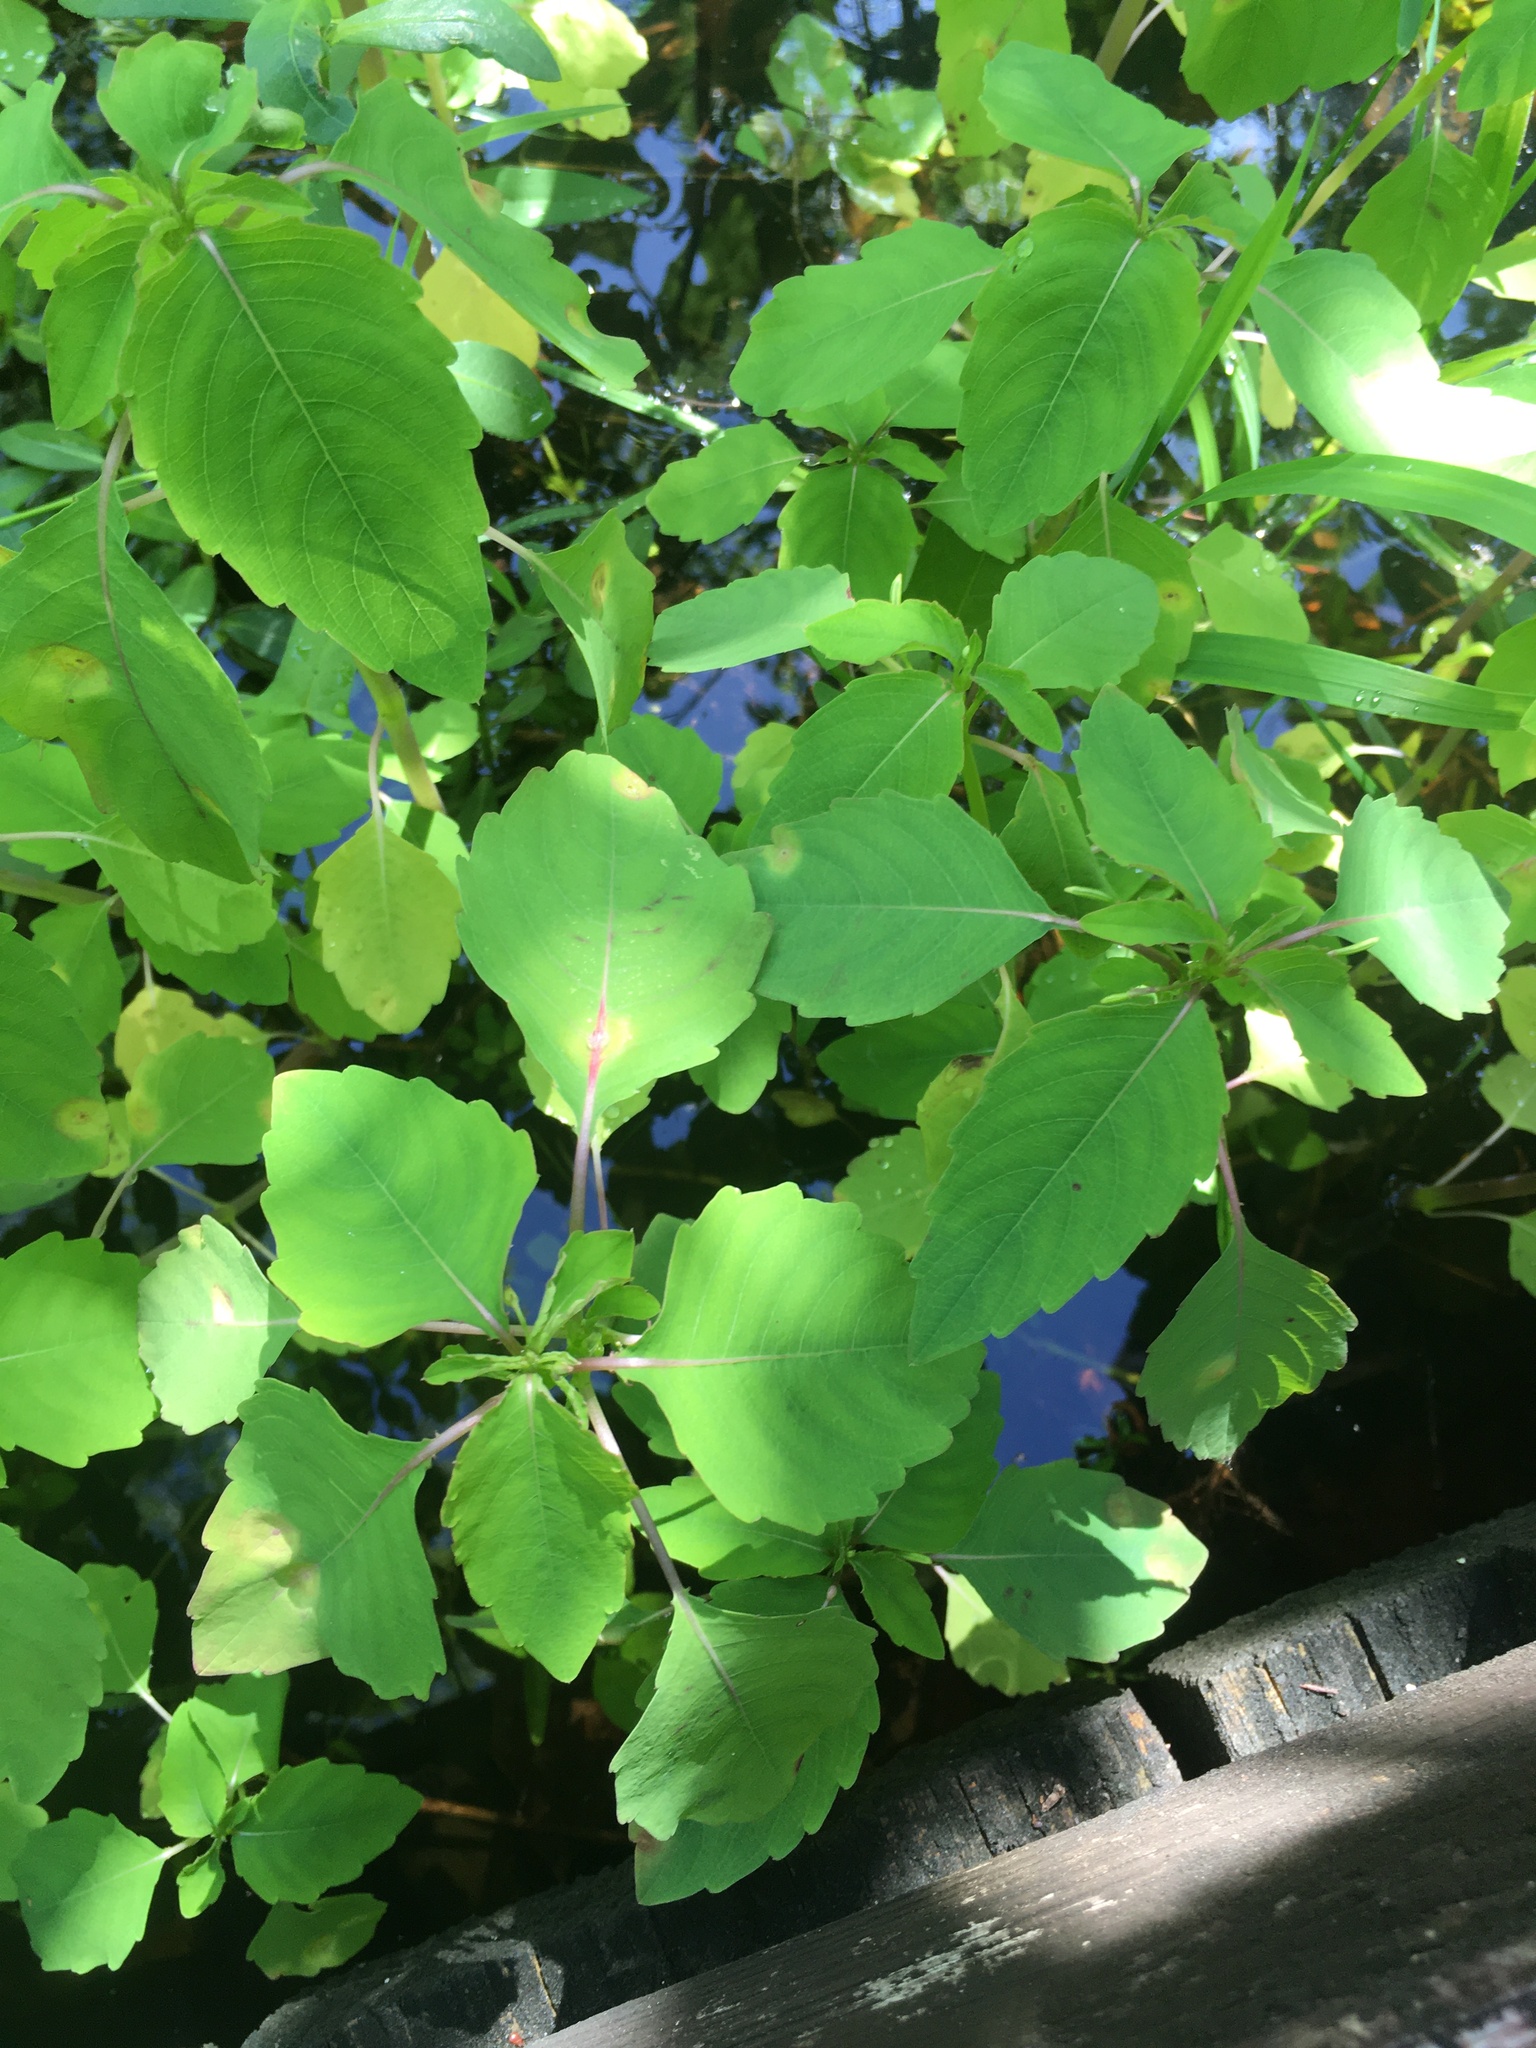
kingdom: Plantae
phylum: Tracheophyta
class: Magnoliopsida
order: Ericales
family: Balsaminaceae
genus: Impatiens
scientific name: Impatiens capensis
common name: Orange balsam
